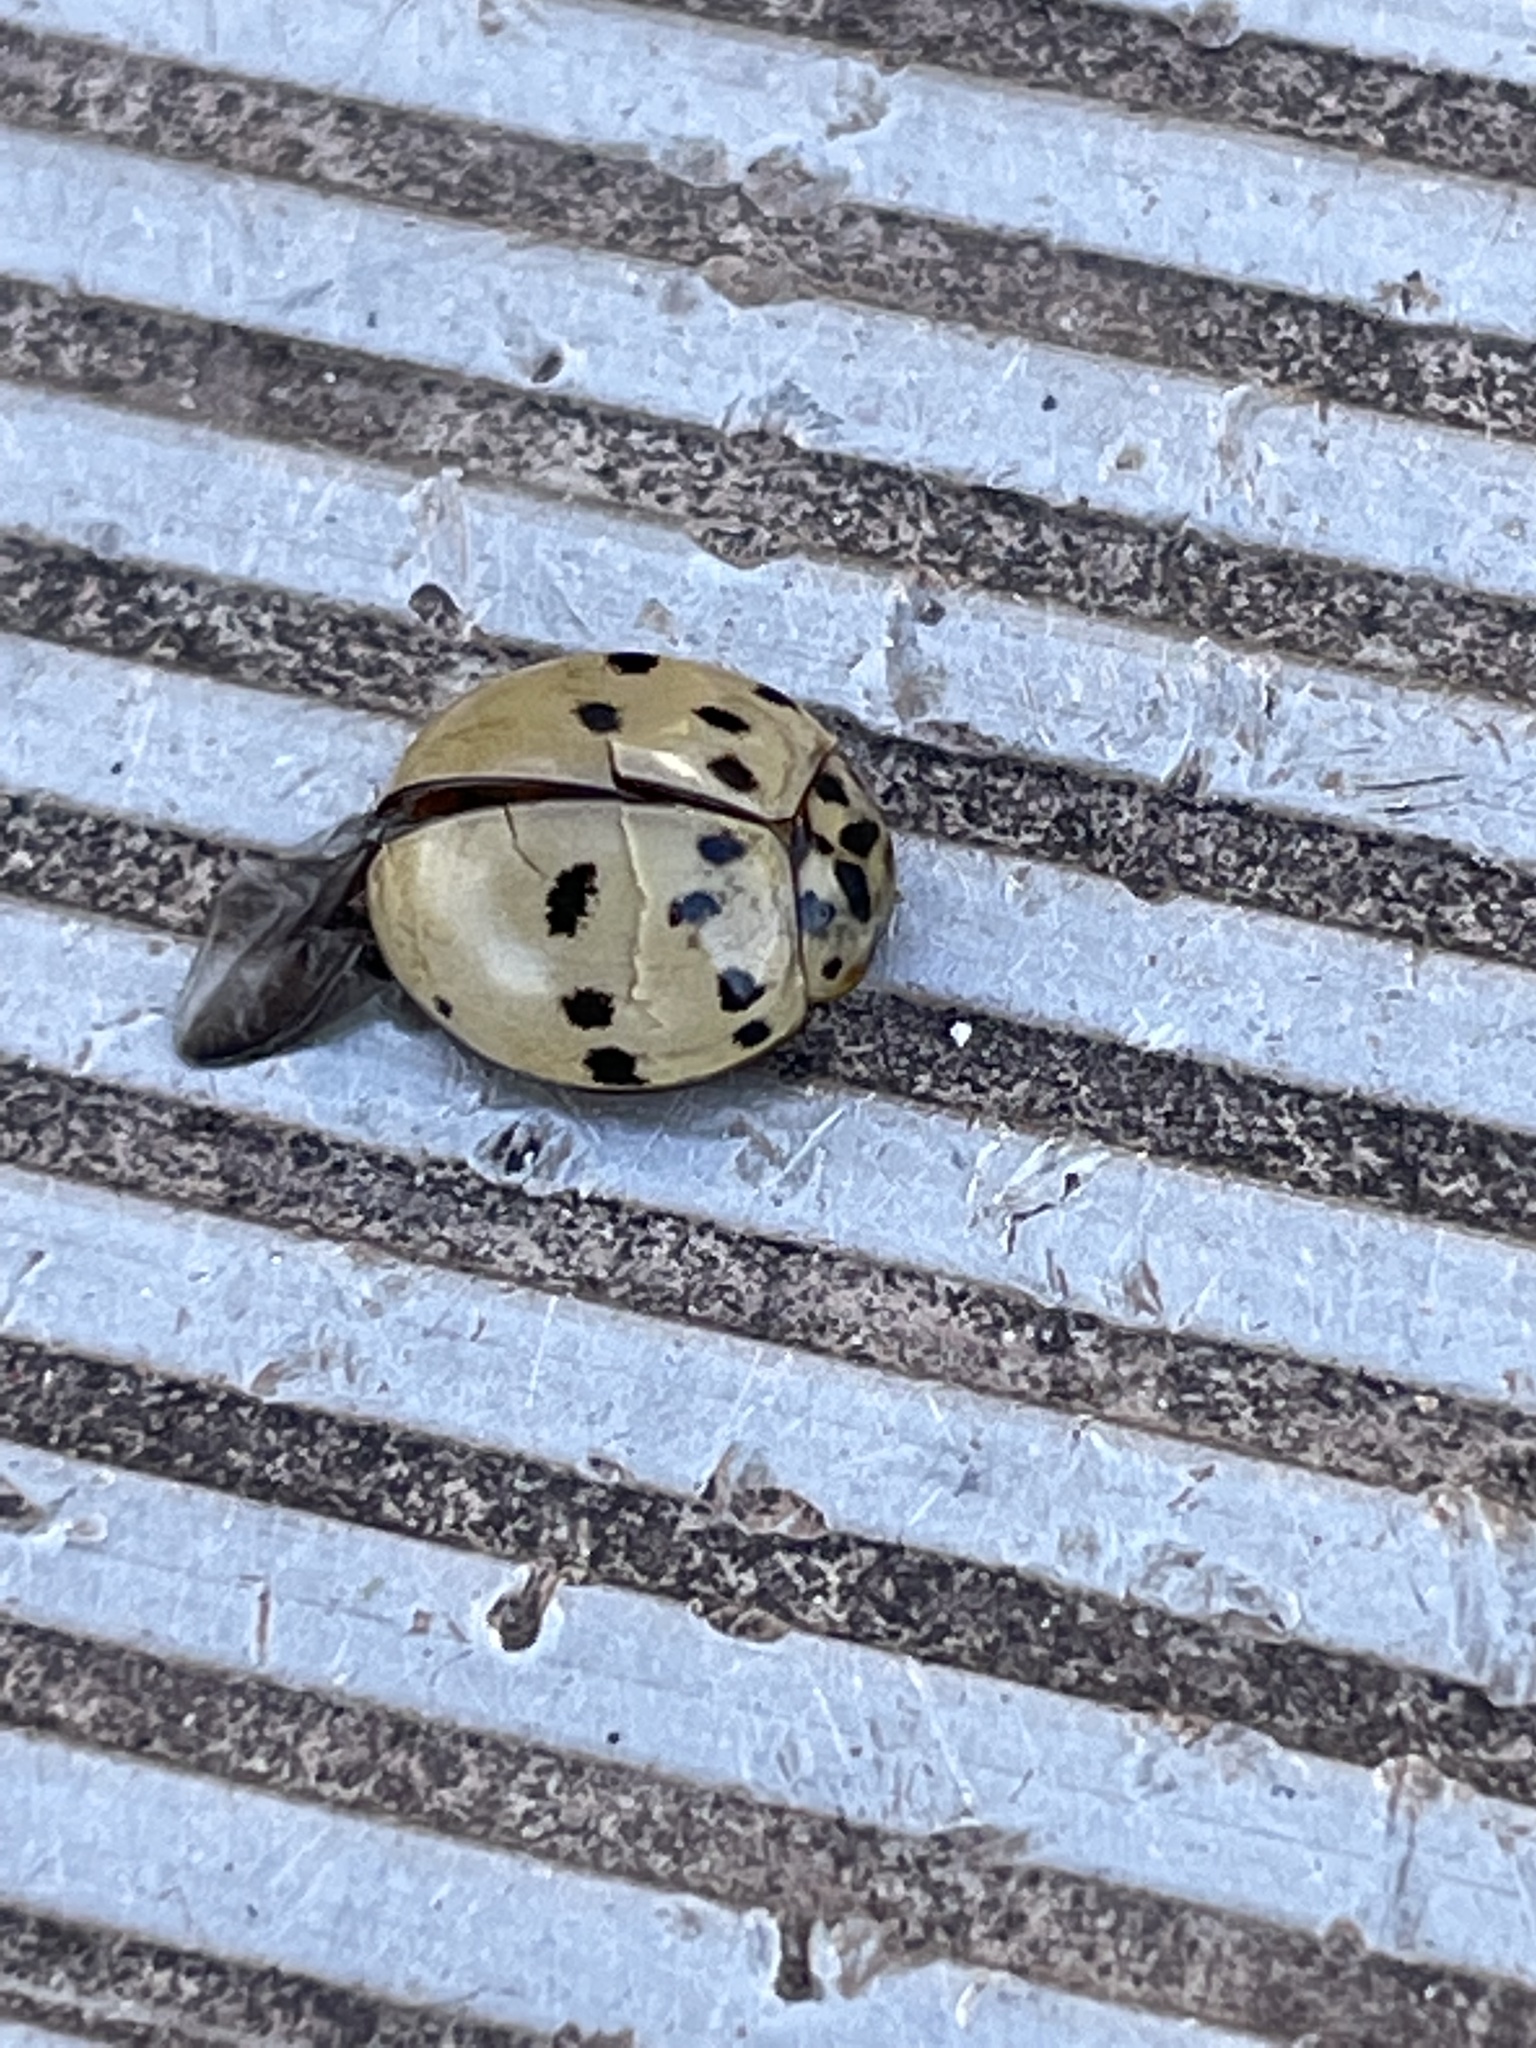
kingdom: Animalia
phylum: Arthropoda
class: Insecta
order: Coleoptera
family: Coccinellidae
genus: Olla
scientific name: Olla v-nigrum
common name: Ashy gray lady beetle
